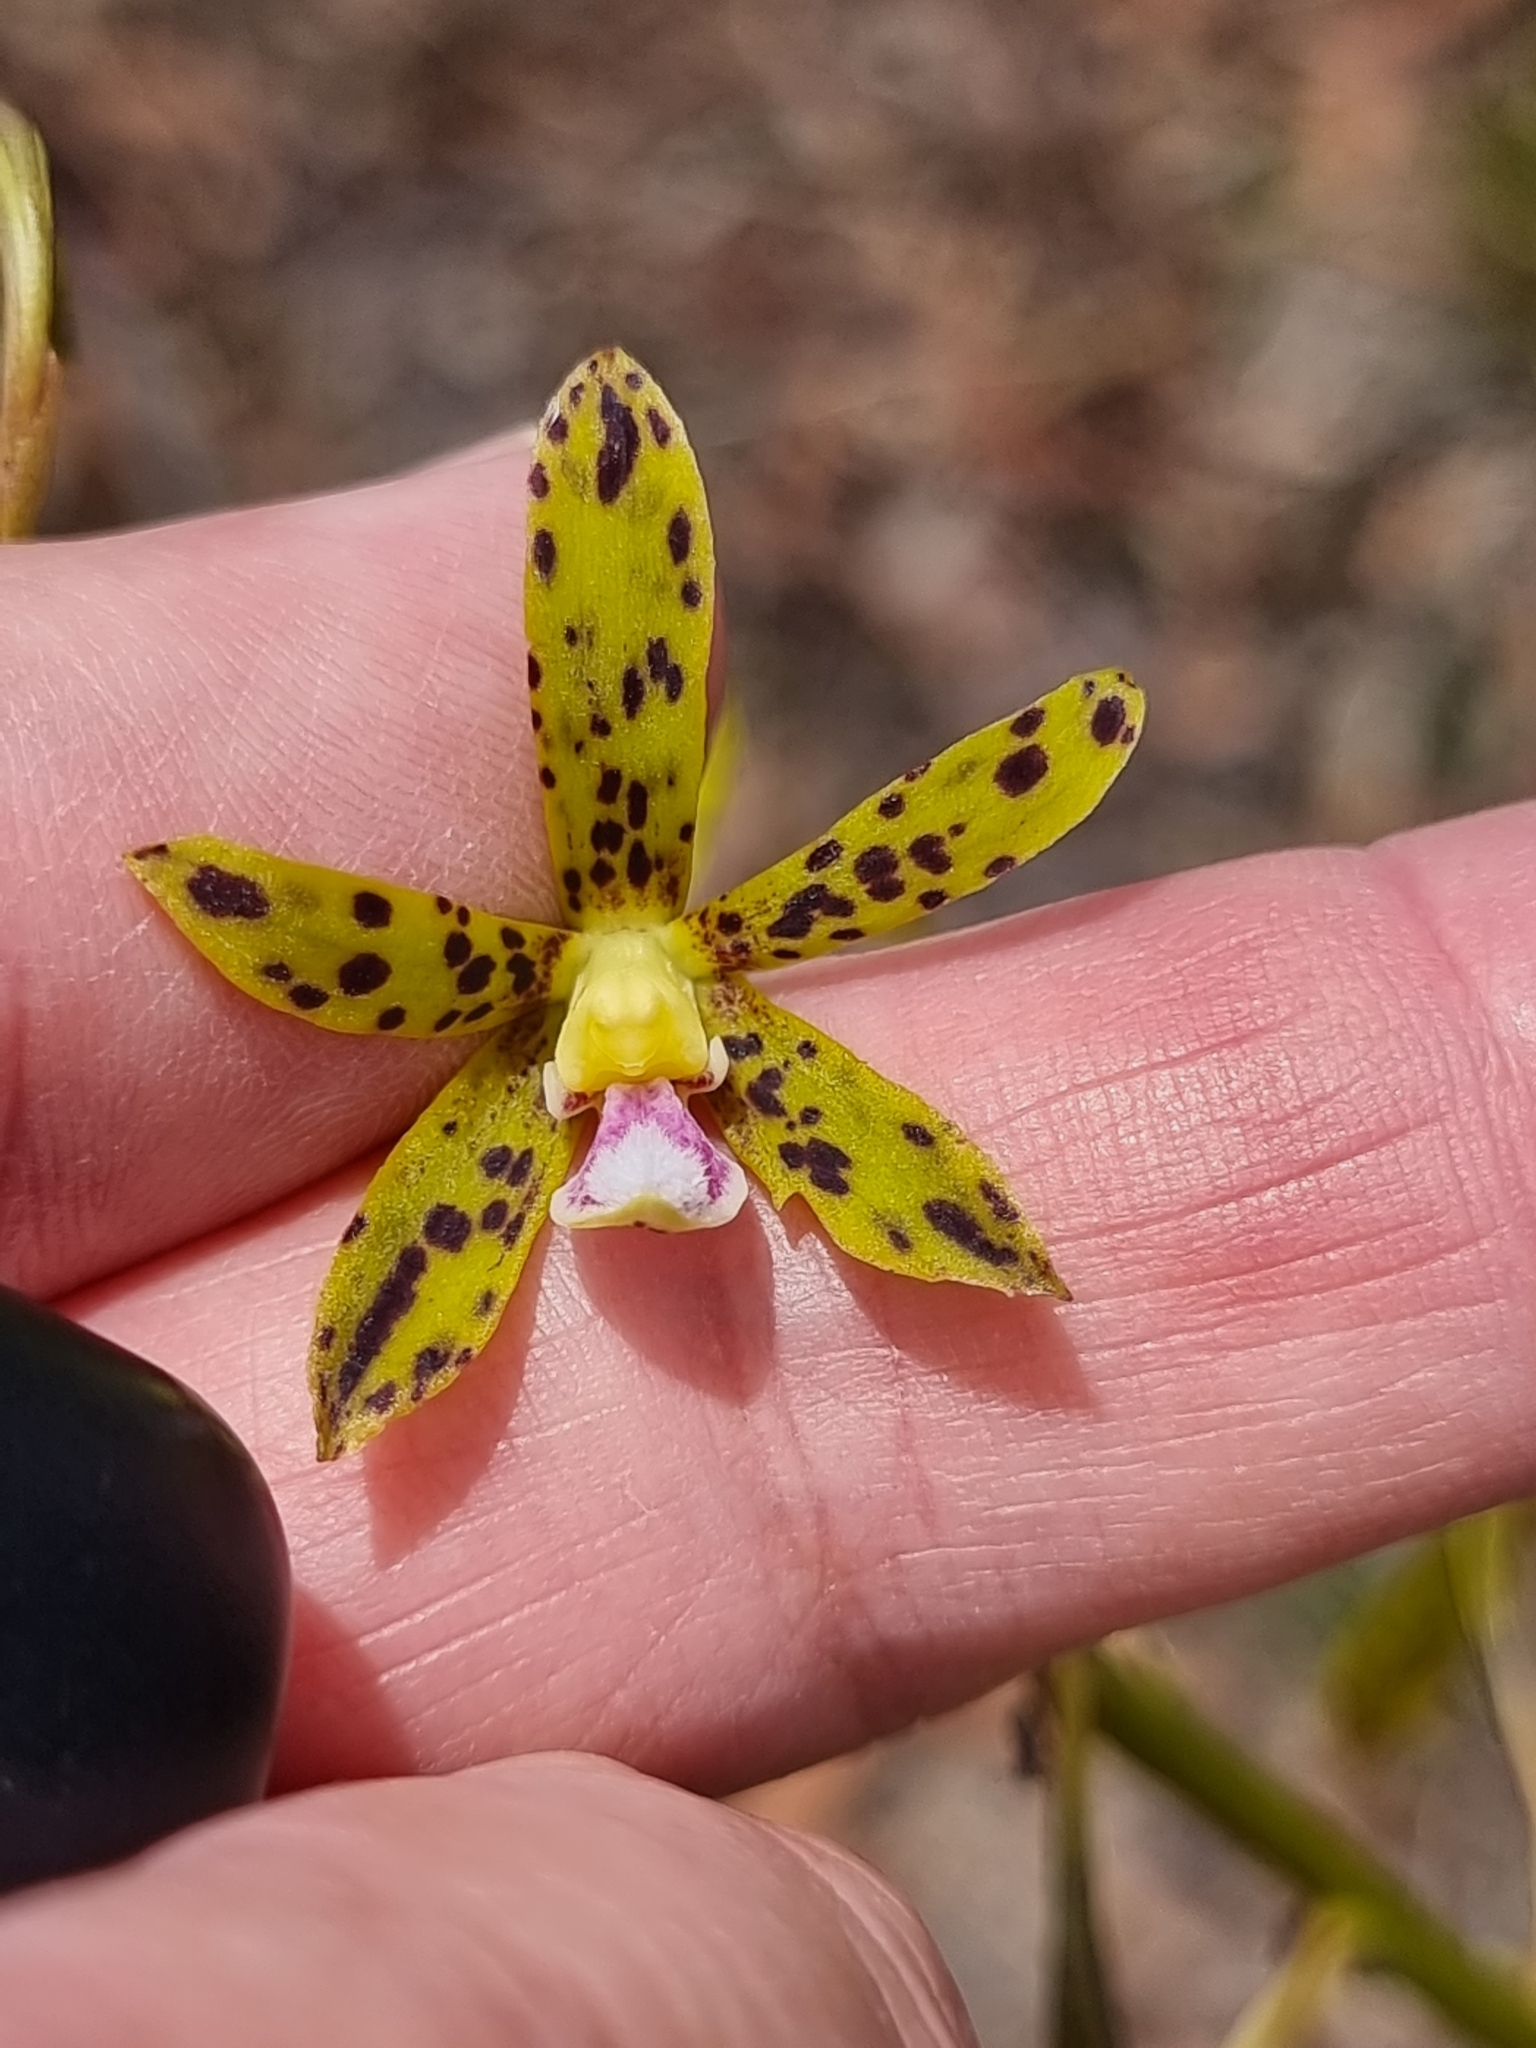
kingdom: Plantae
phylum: Tracheophyta
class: Liliopsida
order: Asparagales
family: Orchidaceae
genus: Dipodium
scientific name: Dipodium hamiltonianum
